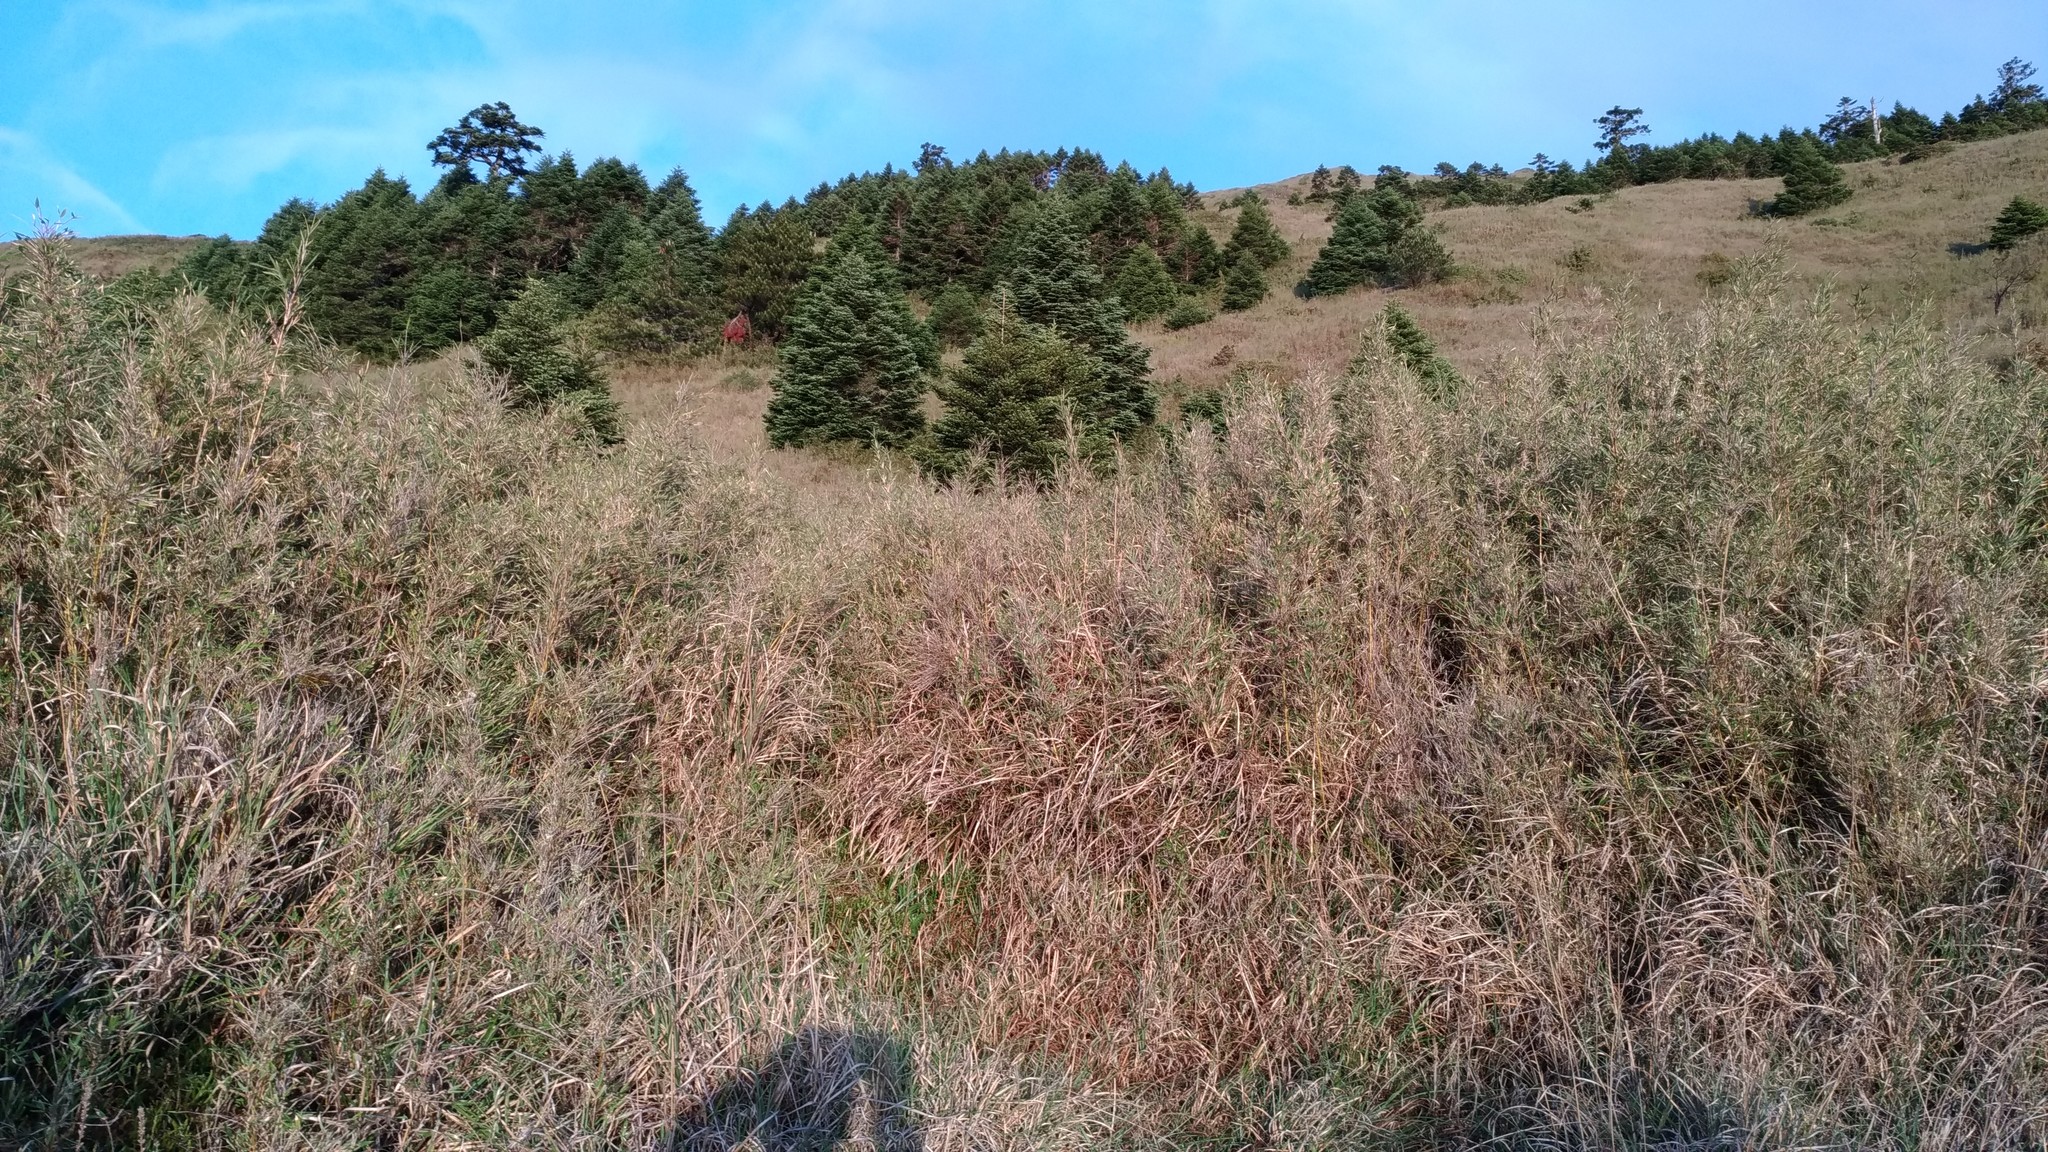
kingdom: Plantae
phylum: Tracheophyta
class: Liliopsida
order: Poales
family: Poaceae
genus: Yushania
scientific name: Yushania niitakayamensis
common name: Yushan cane
